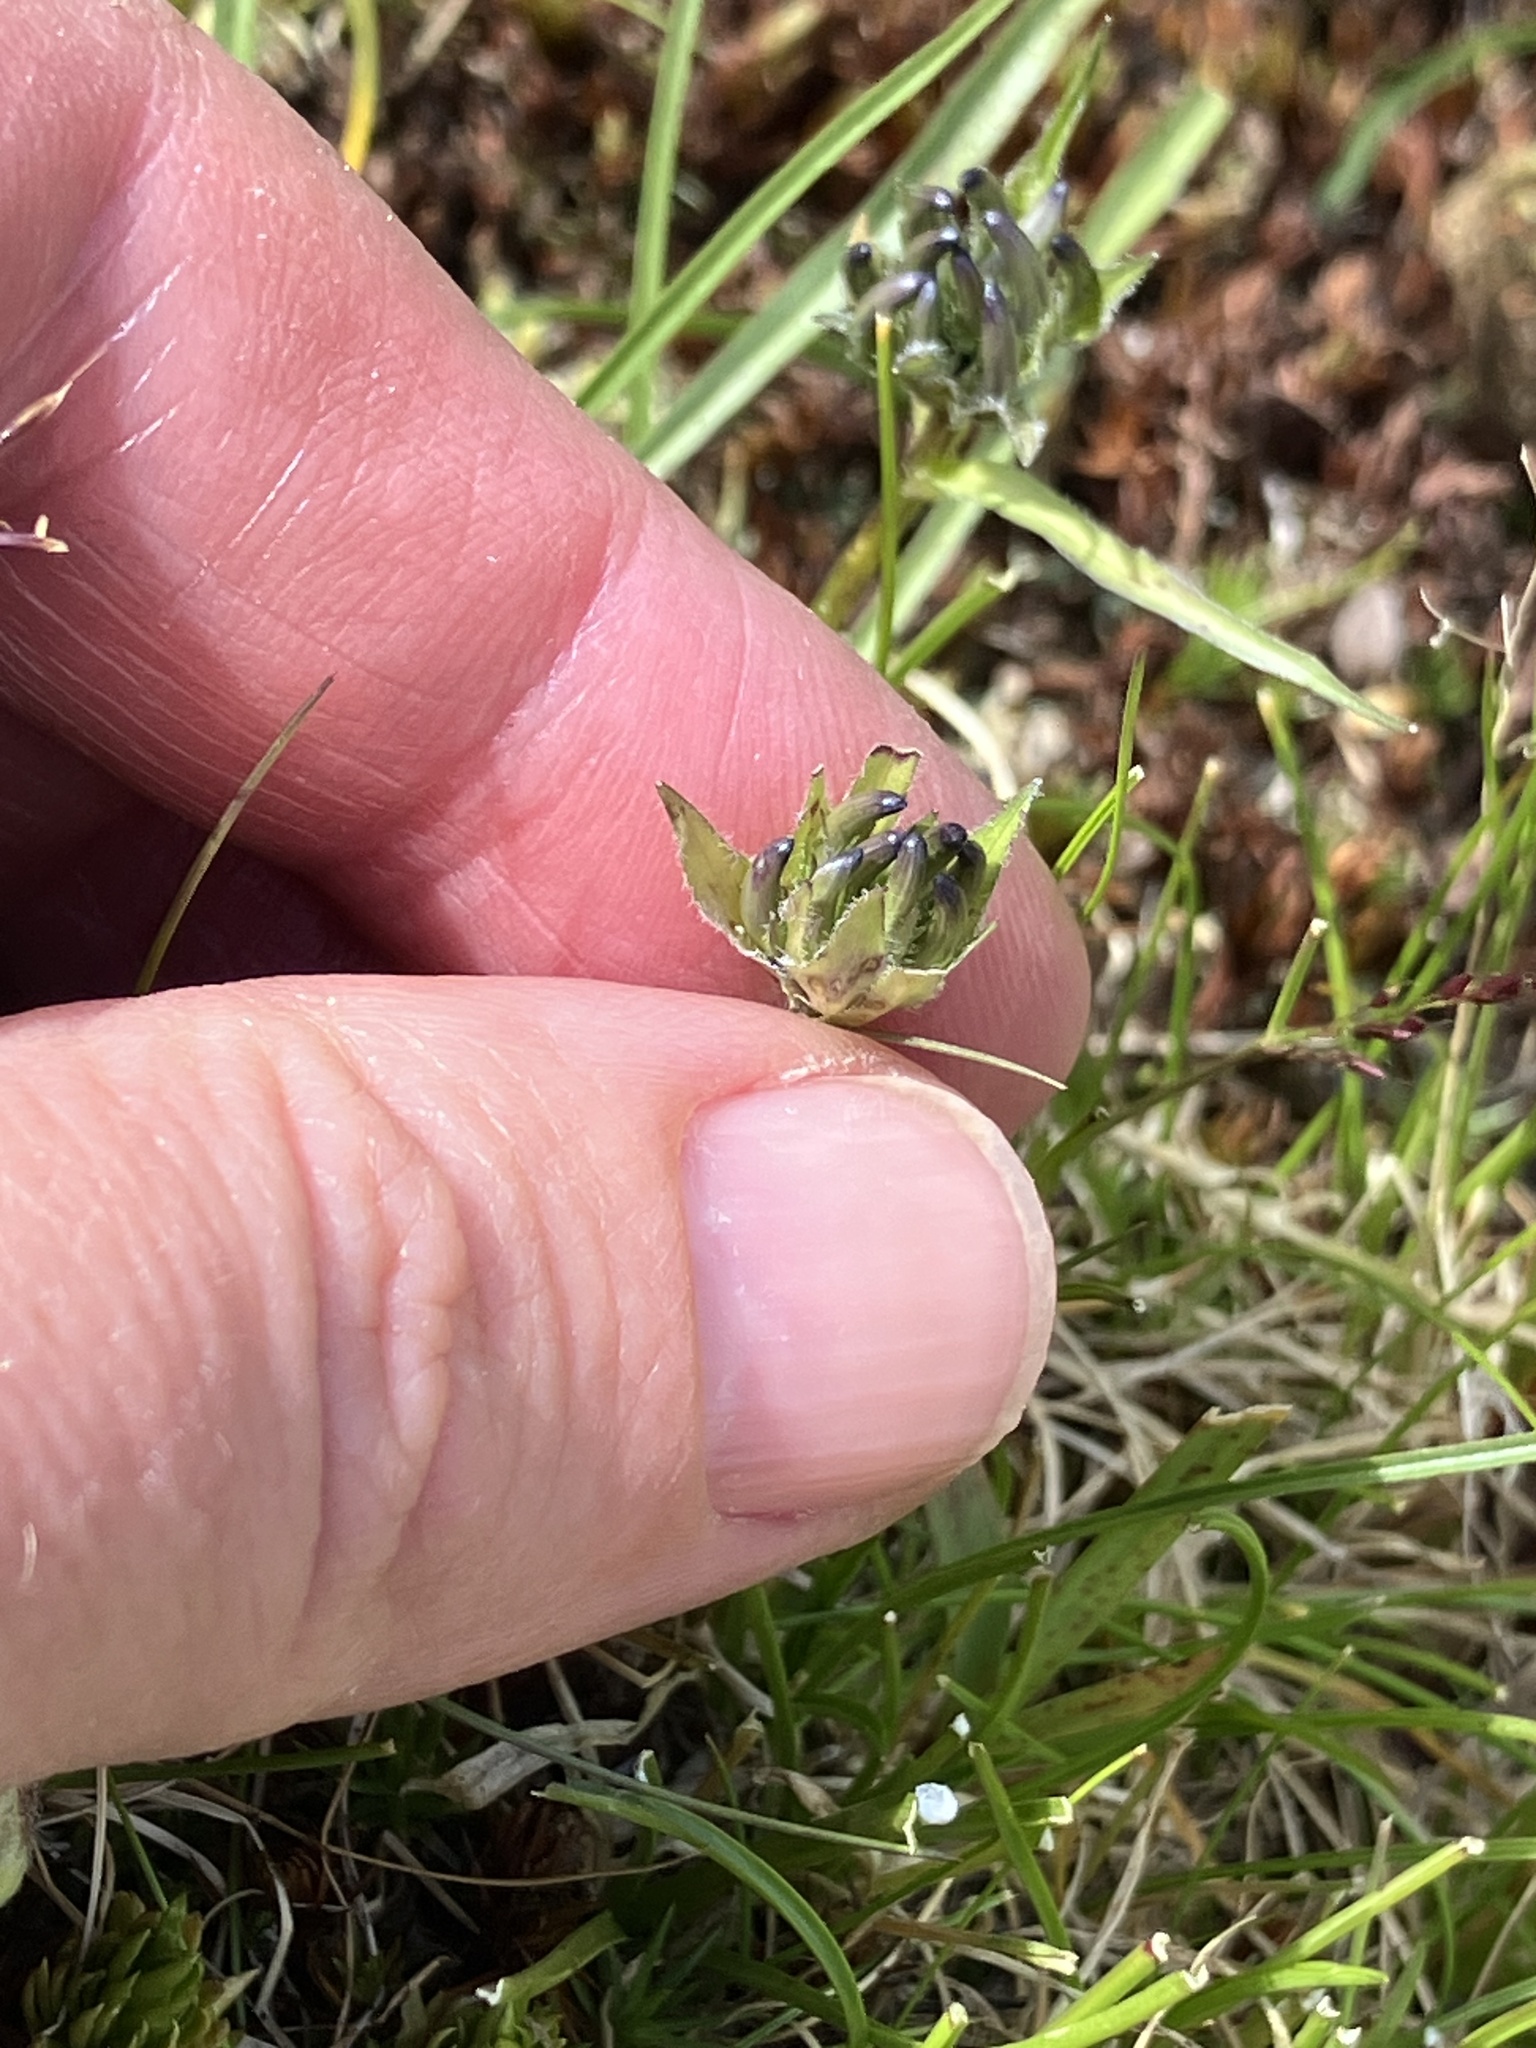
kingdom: Plantae
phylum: Tracheophyta
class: Magnoliopsida
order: Asterales
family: Campanulaceae
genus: Phyteuma
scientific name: Phyteuma hemisphaericum
